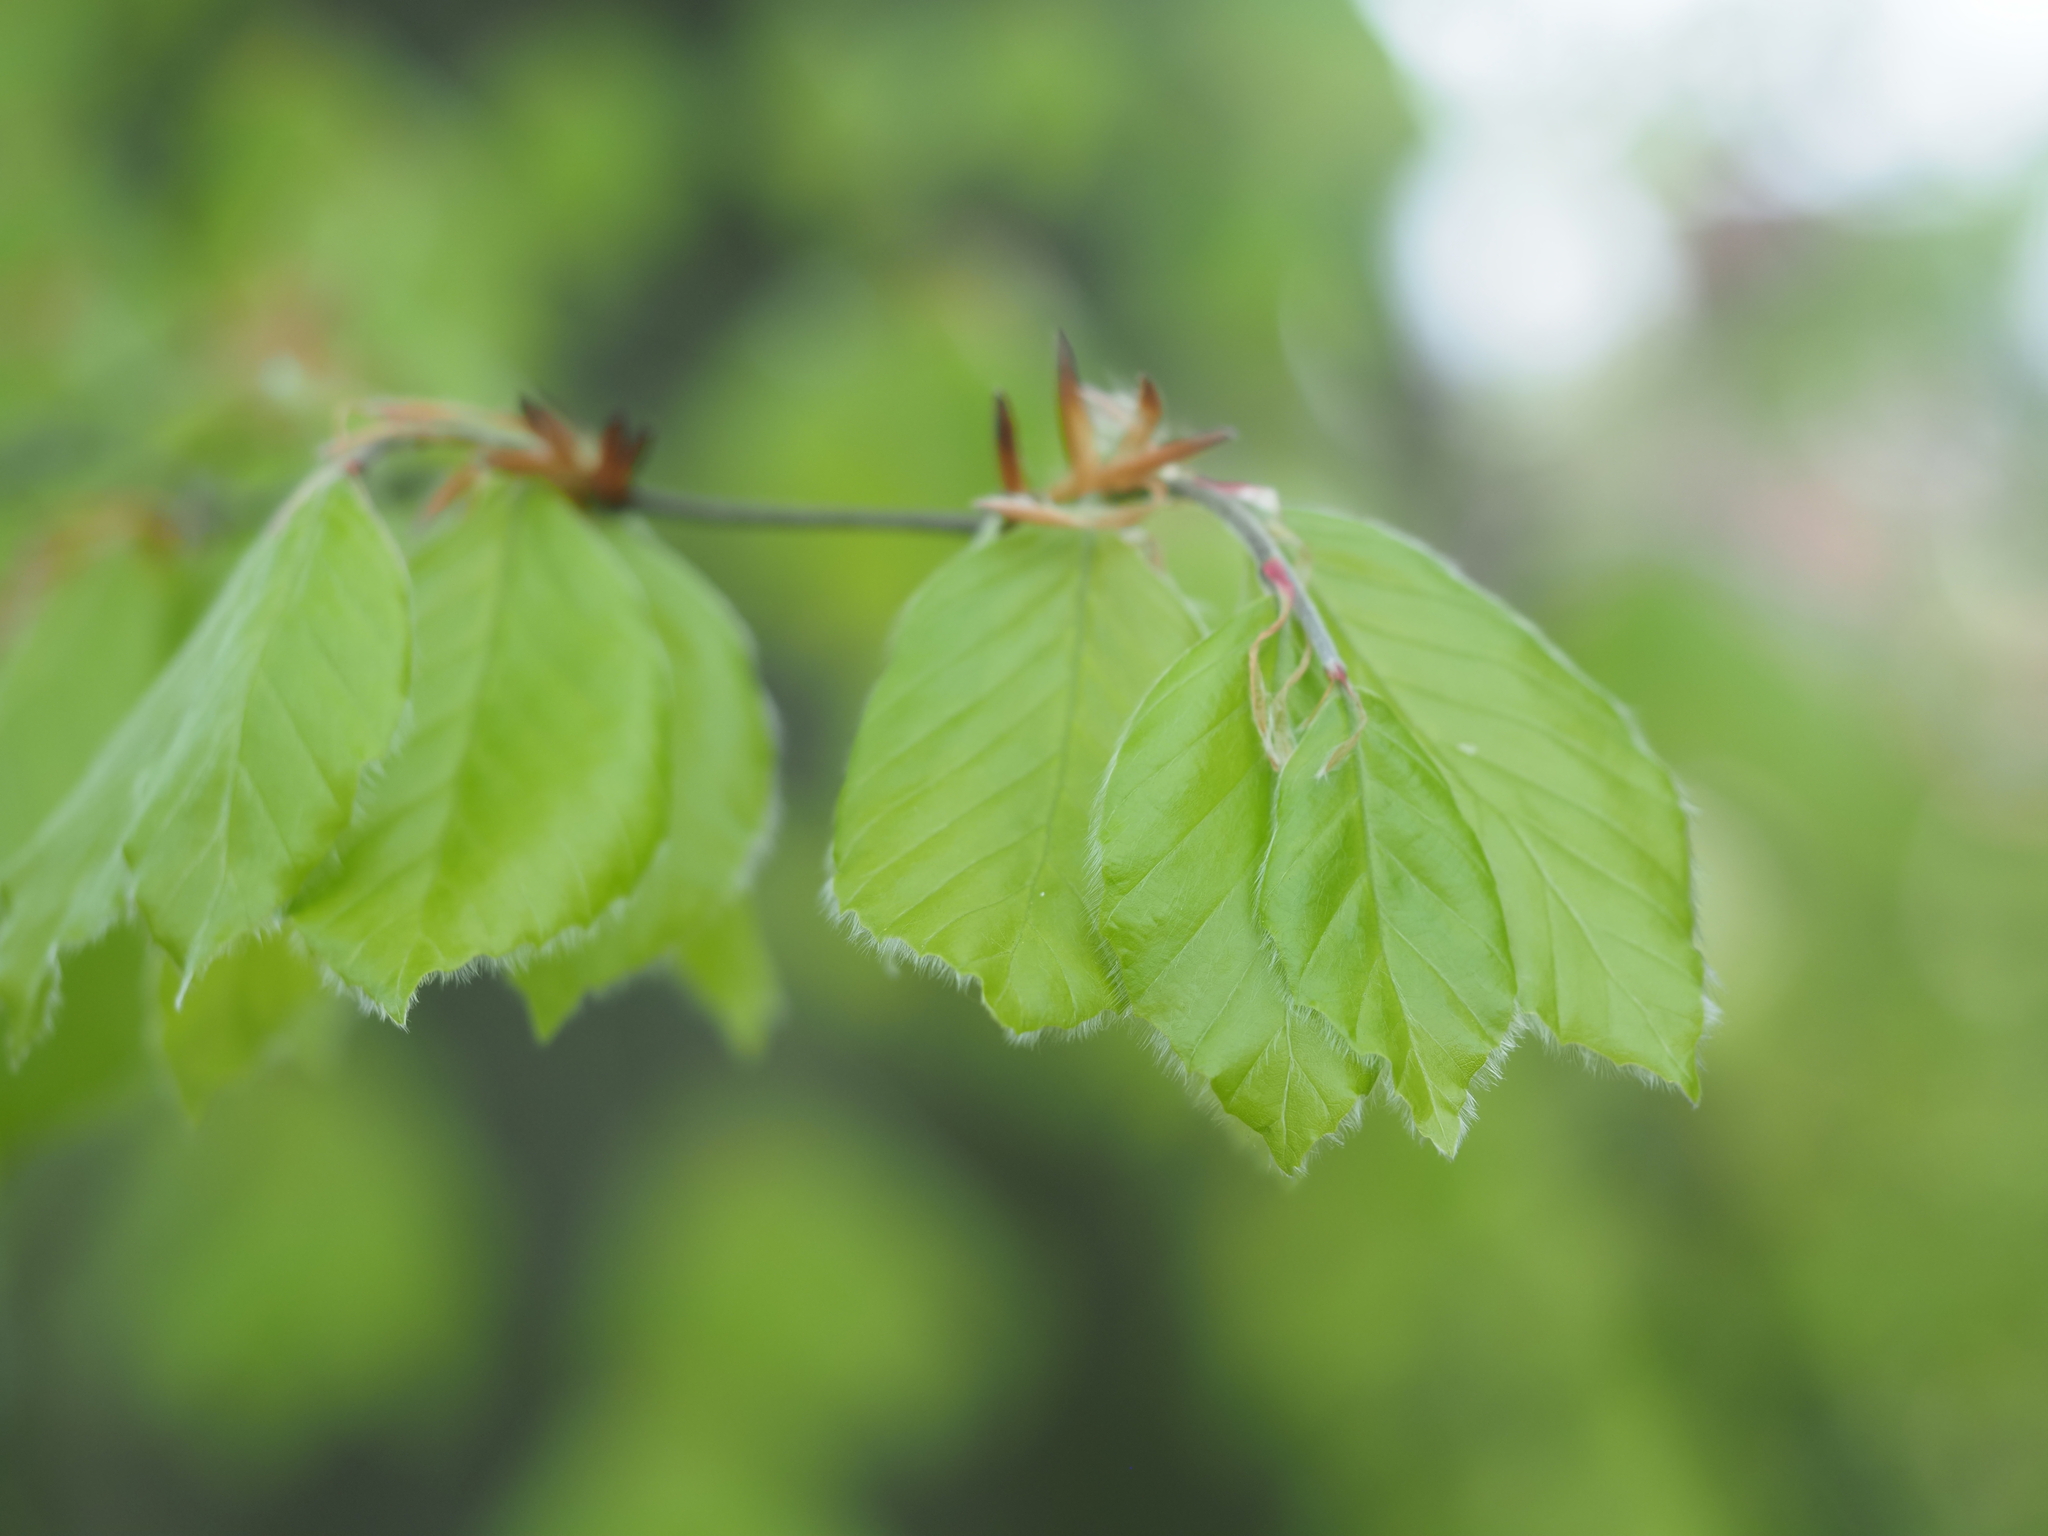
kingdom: Plantae
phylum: Tracheophyta
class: Magnoliopsida
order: Fagales
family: Fagaceae
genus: Fagus
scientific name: Fagus sylvatica
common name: Beech
